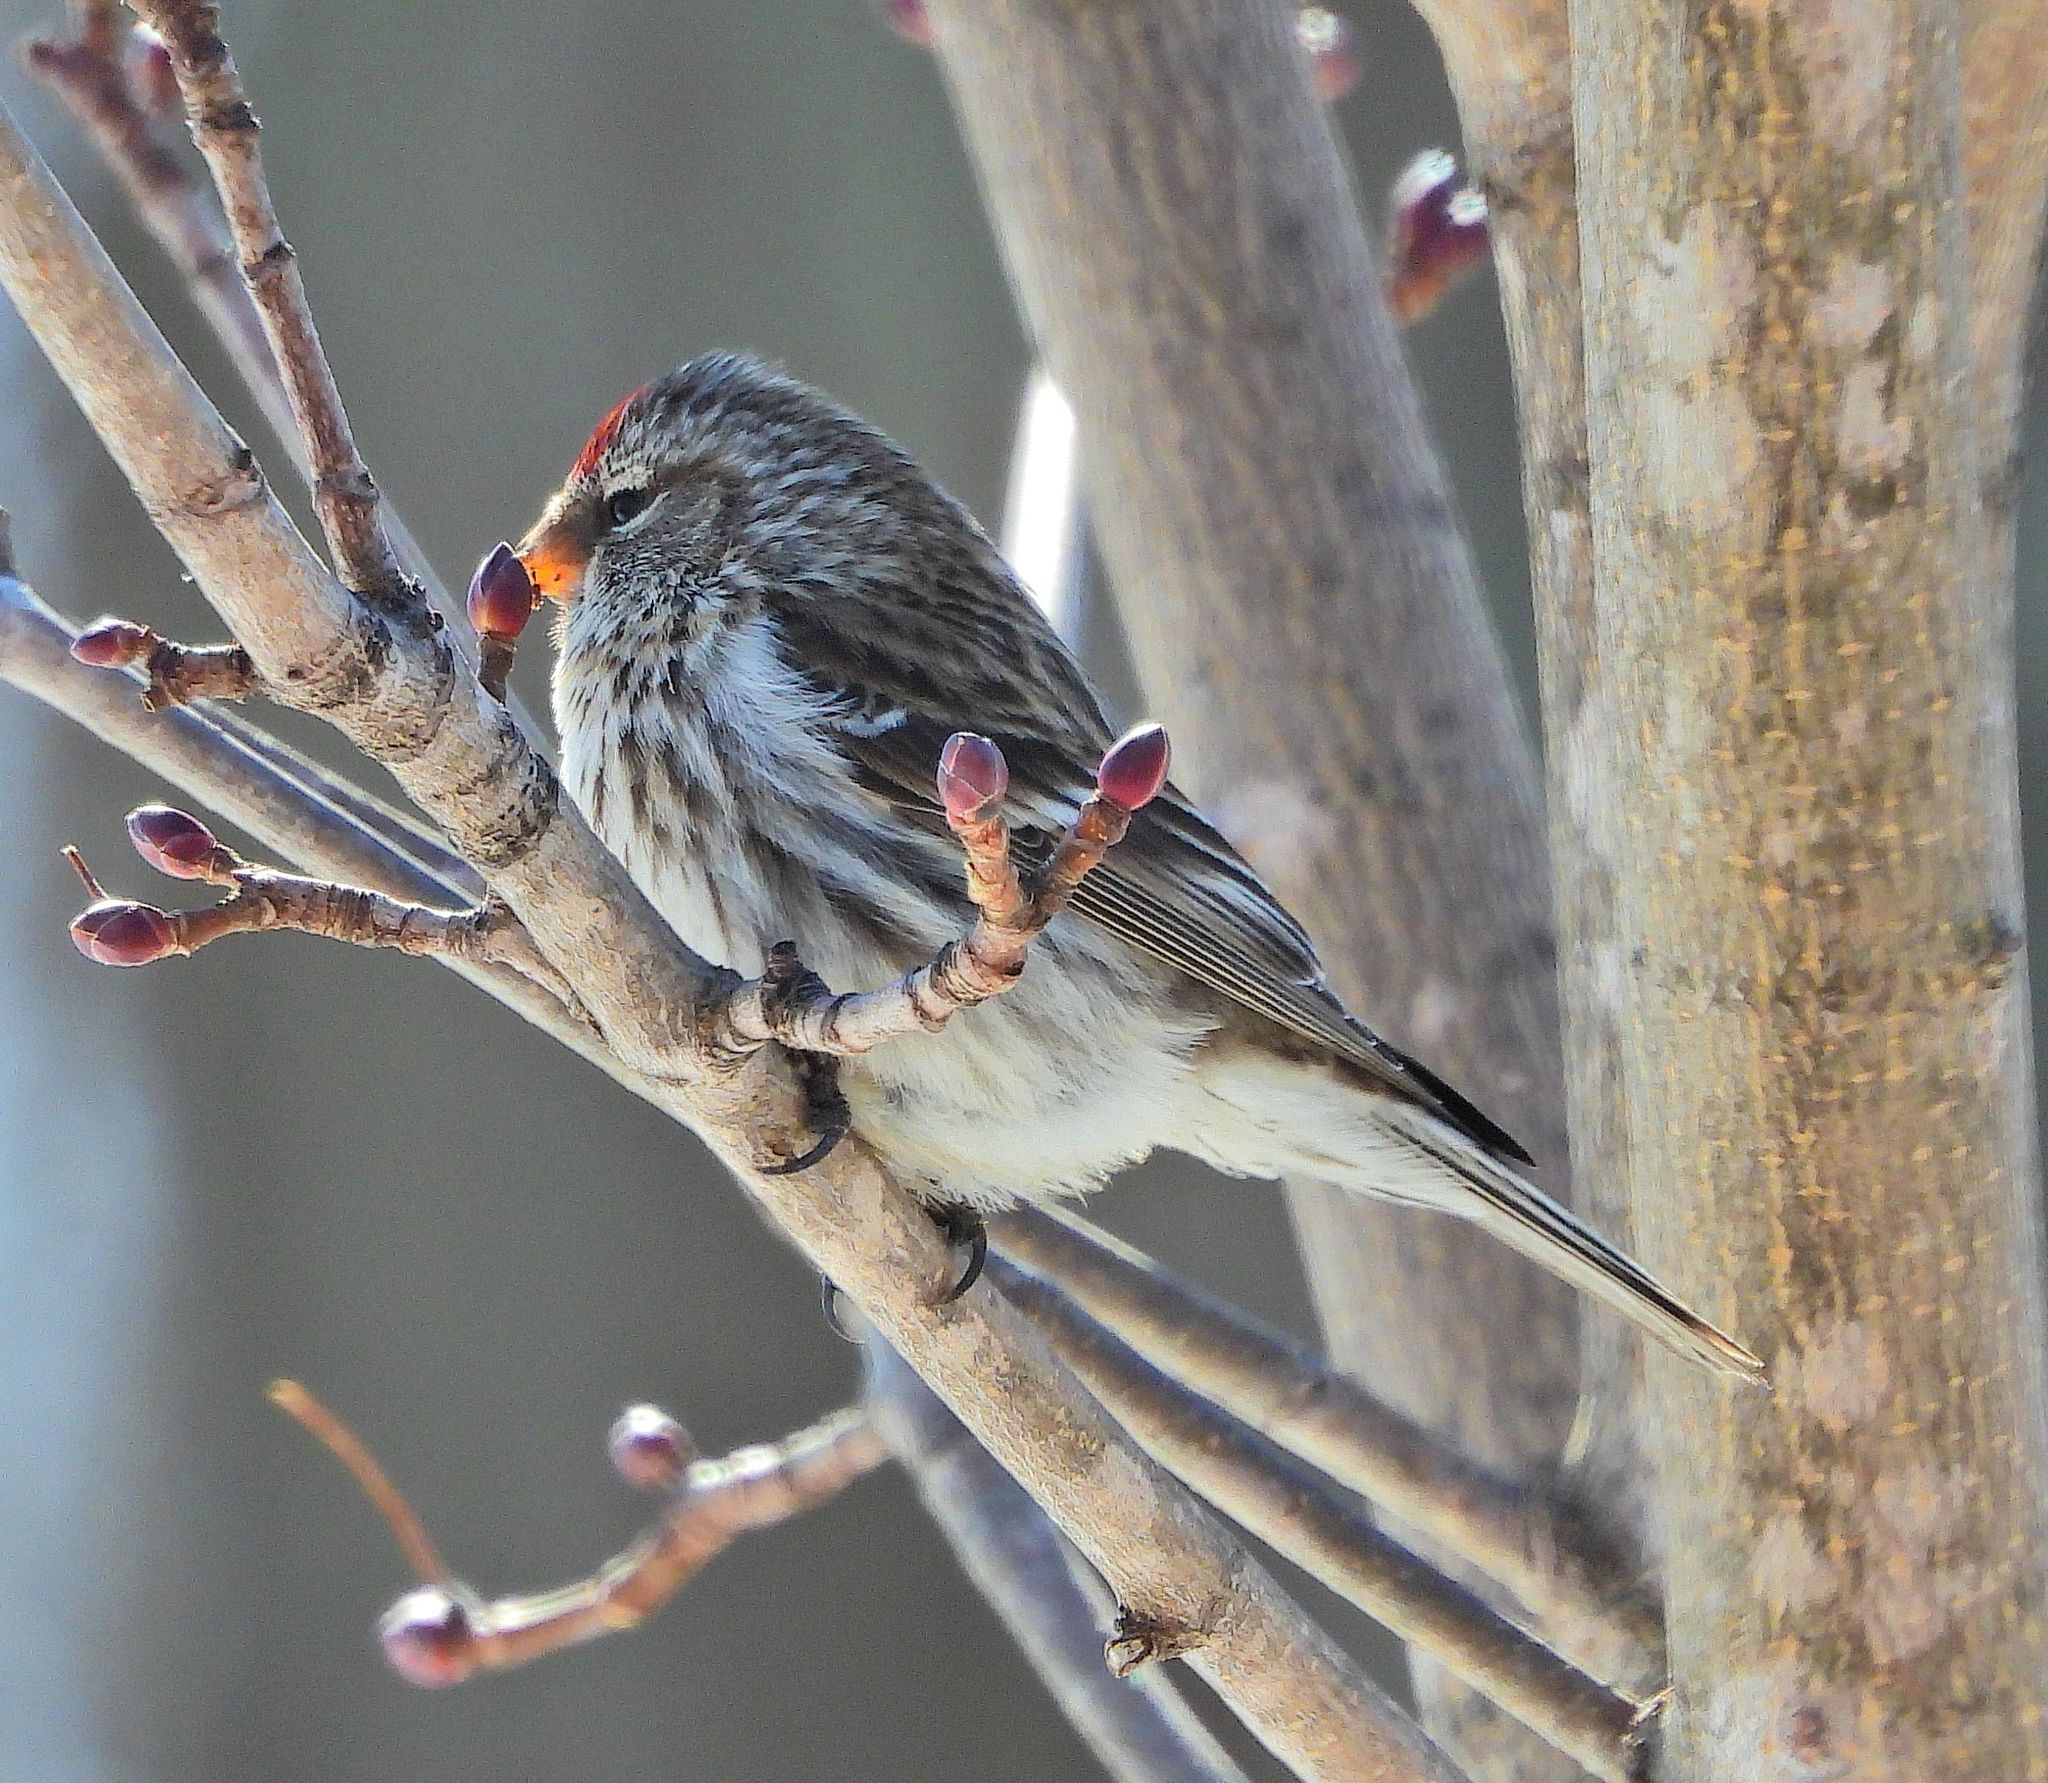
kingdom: Animalia
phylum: Chordata
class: Aves
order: Passeriformes
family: Fringillidae
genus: Acanthis
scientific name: Acanthis flammea
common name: Common redpoll
